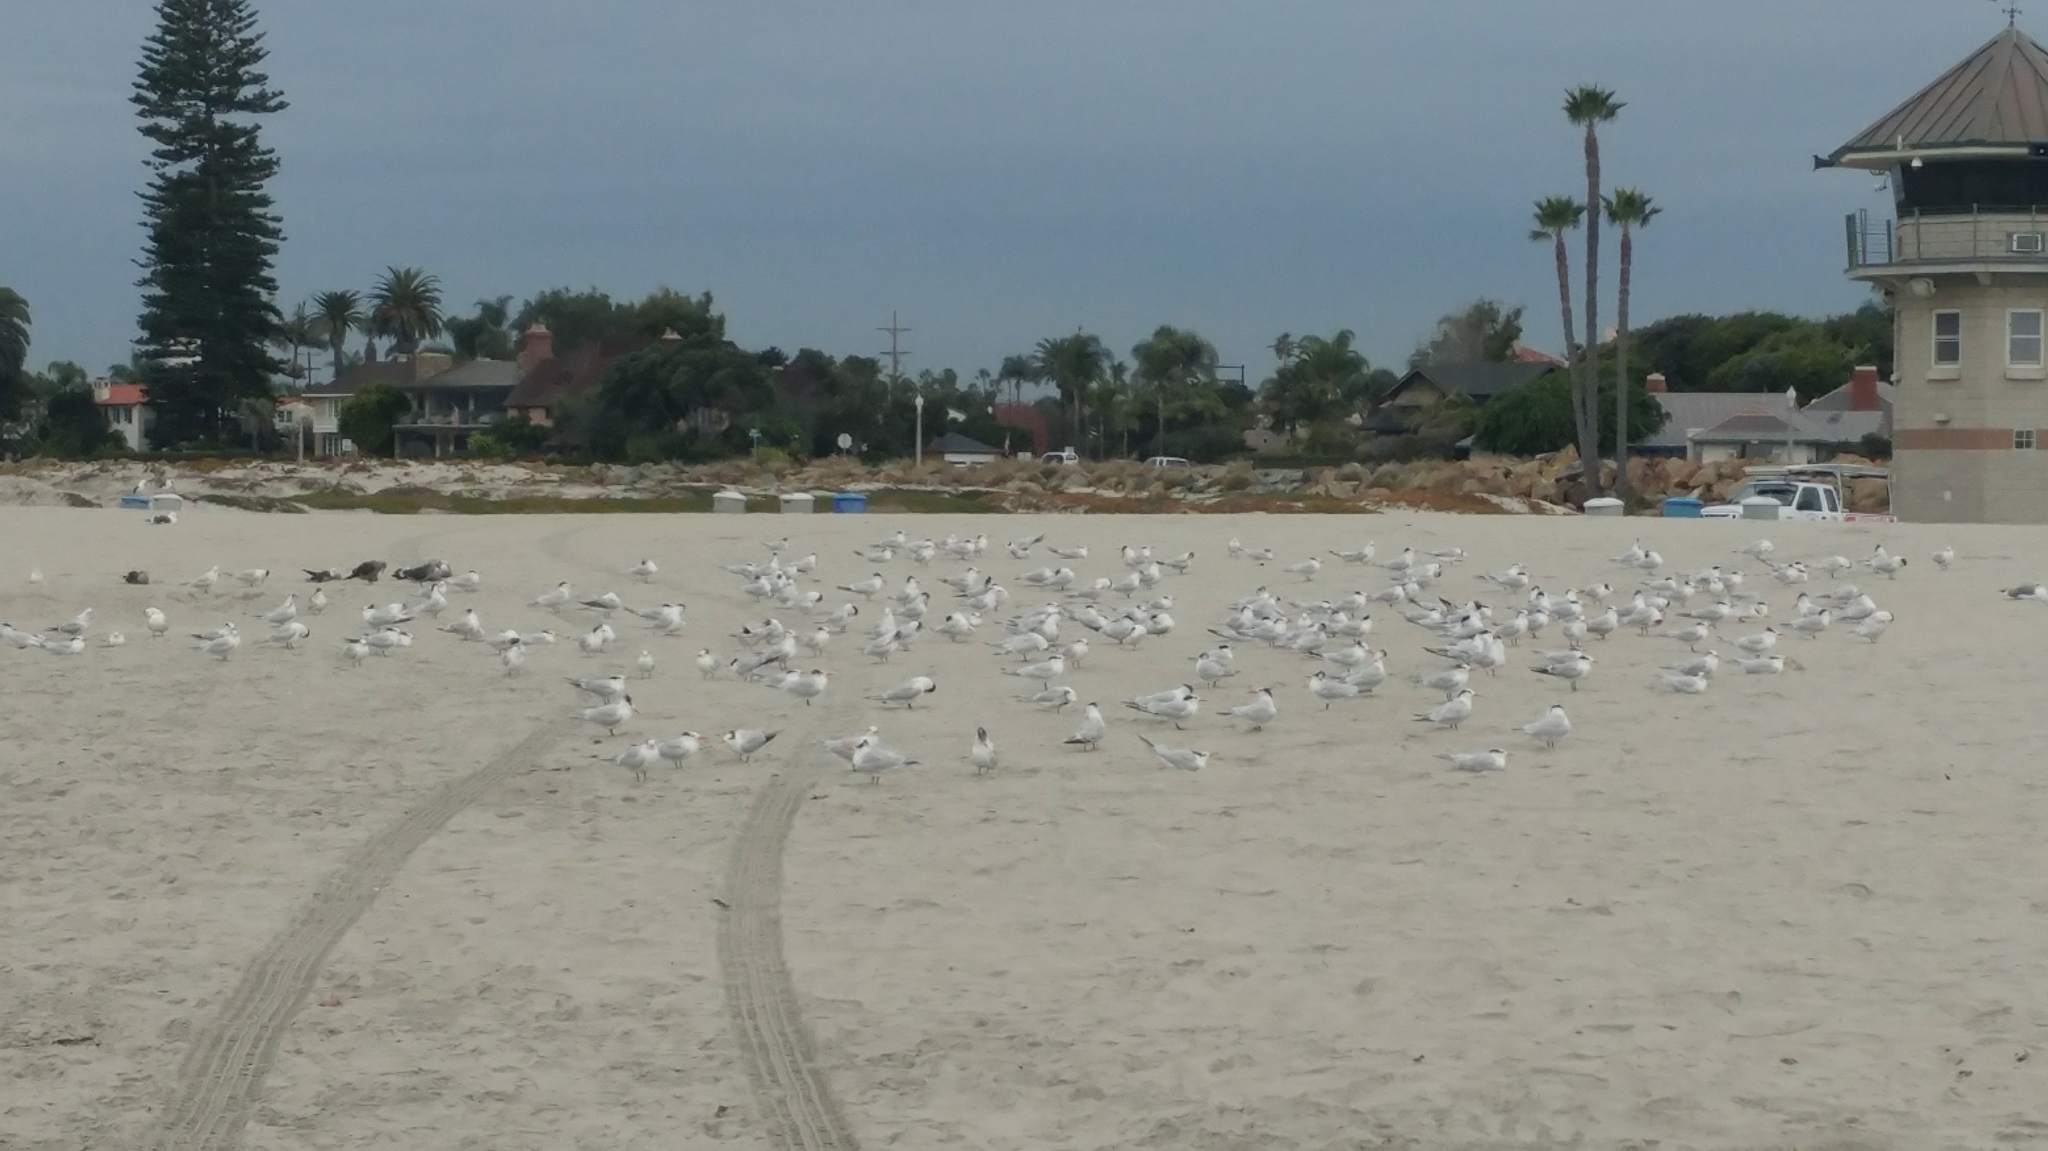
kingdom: Animalia
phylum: Chordata
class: Aves
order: Charadriiformes
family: Laridae
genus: Thalasseus
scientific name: Thalasseus maximus
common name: Royal tern
